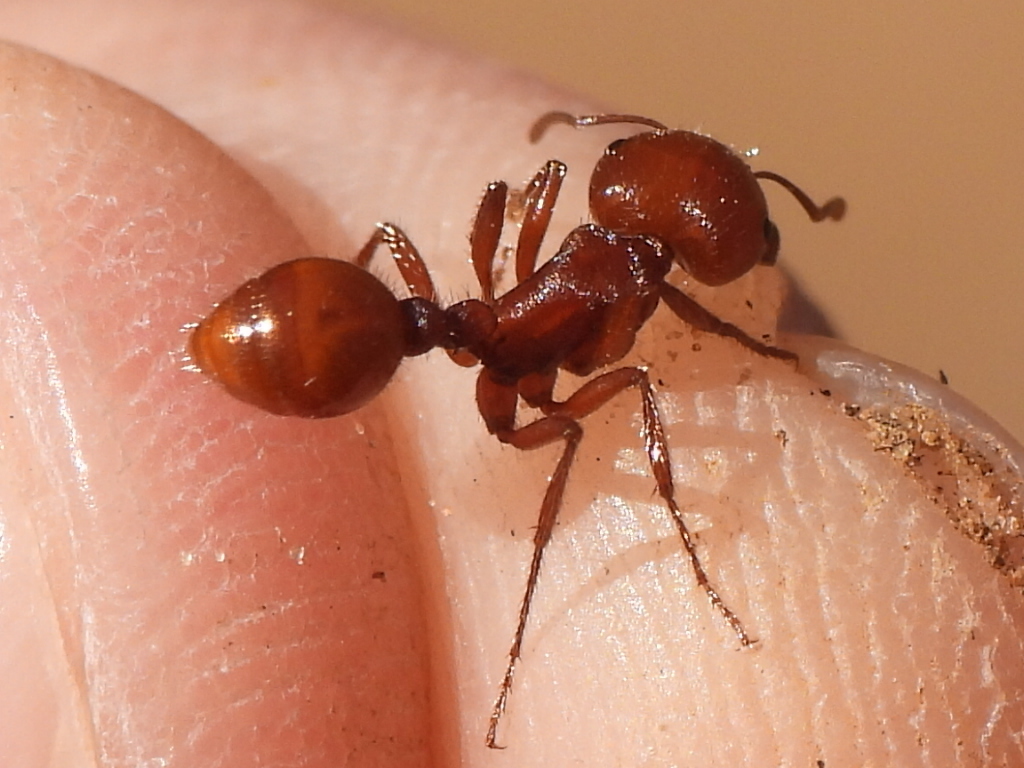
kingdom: Animalia
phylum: Arthropoda
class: Insecta
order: Hymenoptera
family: Formicidae
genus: Pogonomyrmex
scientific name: Pogonomyrmex barbatus
